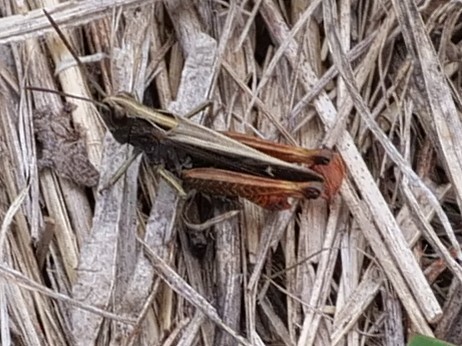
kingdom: Animalia
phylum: Arthropoda
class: Insecta
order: Orthoptera
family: Acrididae
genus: Omocestus
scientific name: Omocestus rufipes
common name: Woodland grasshopper
